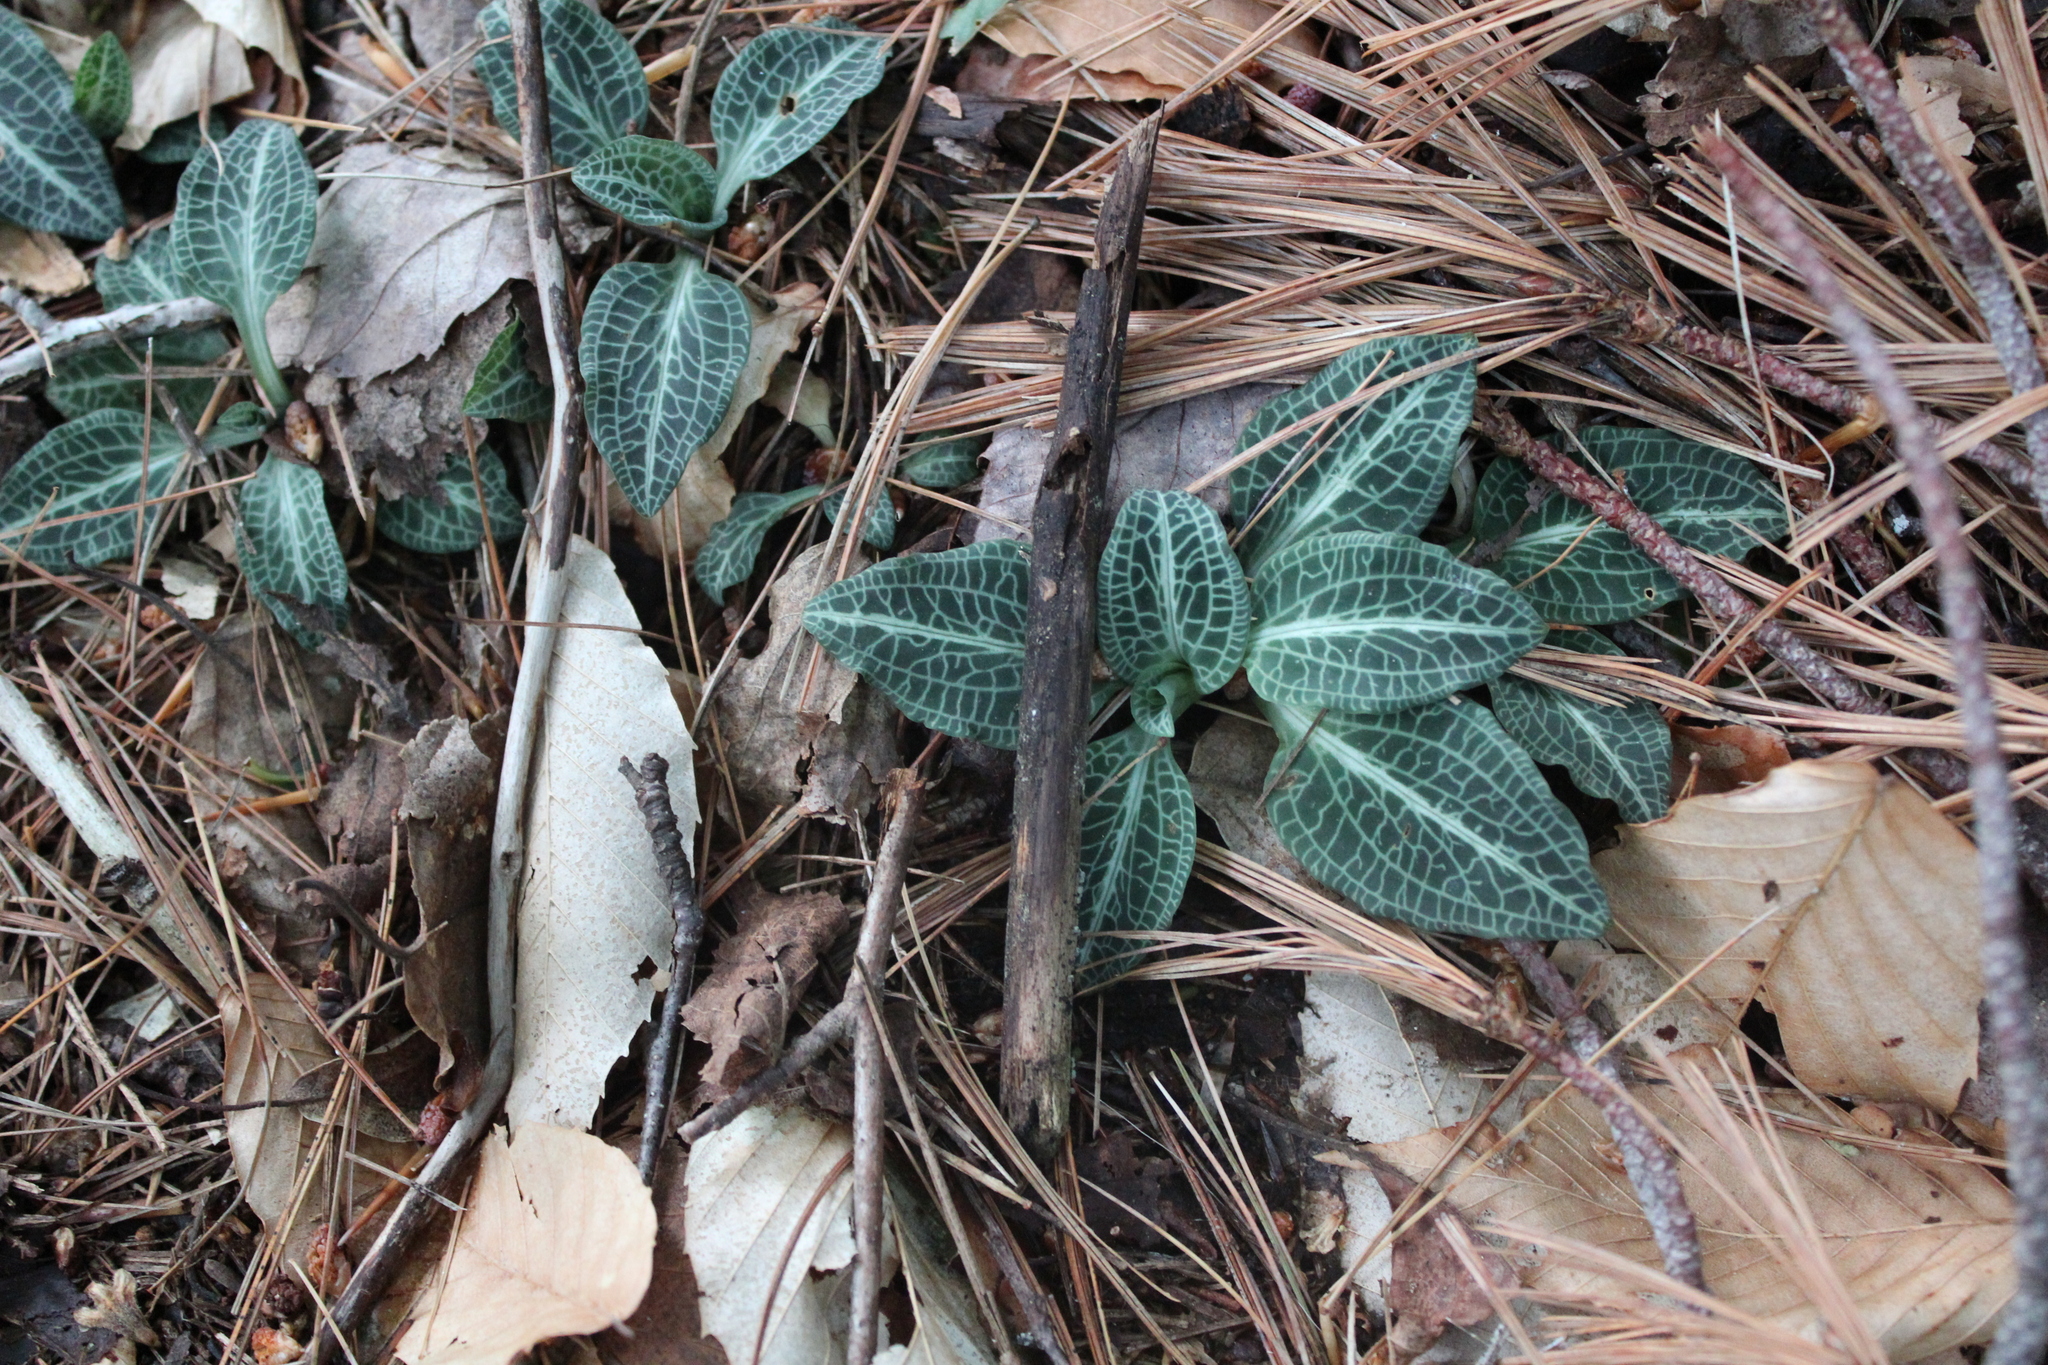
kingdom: Plantae
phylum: Tracheophyta
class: Liliopsida
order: Asparagales
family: Orchidaceae
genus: Goodyera
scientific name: Goodyera pubescens
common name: Downy rattlesnake-plantain
